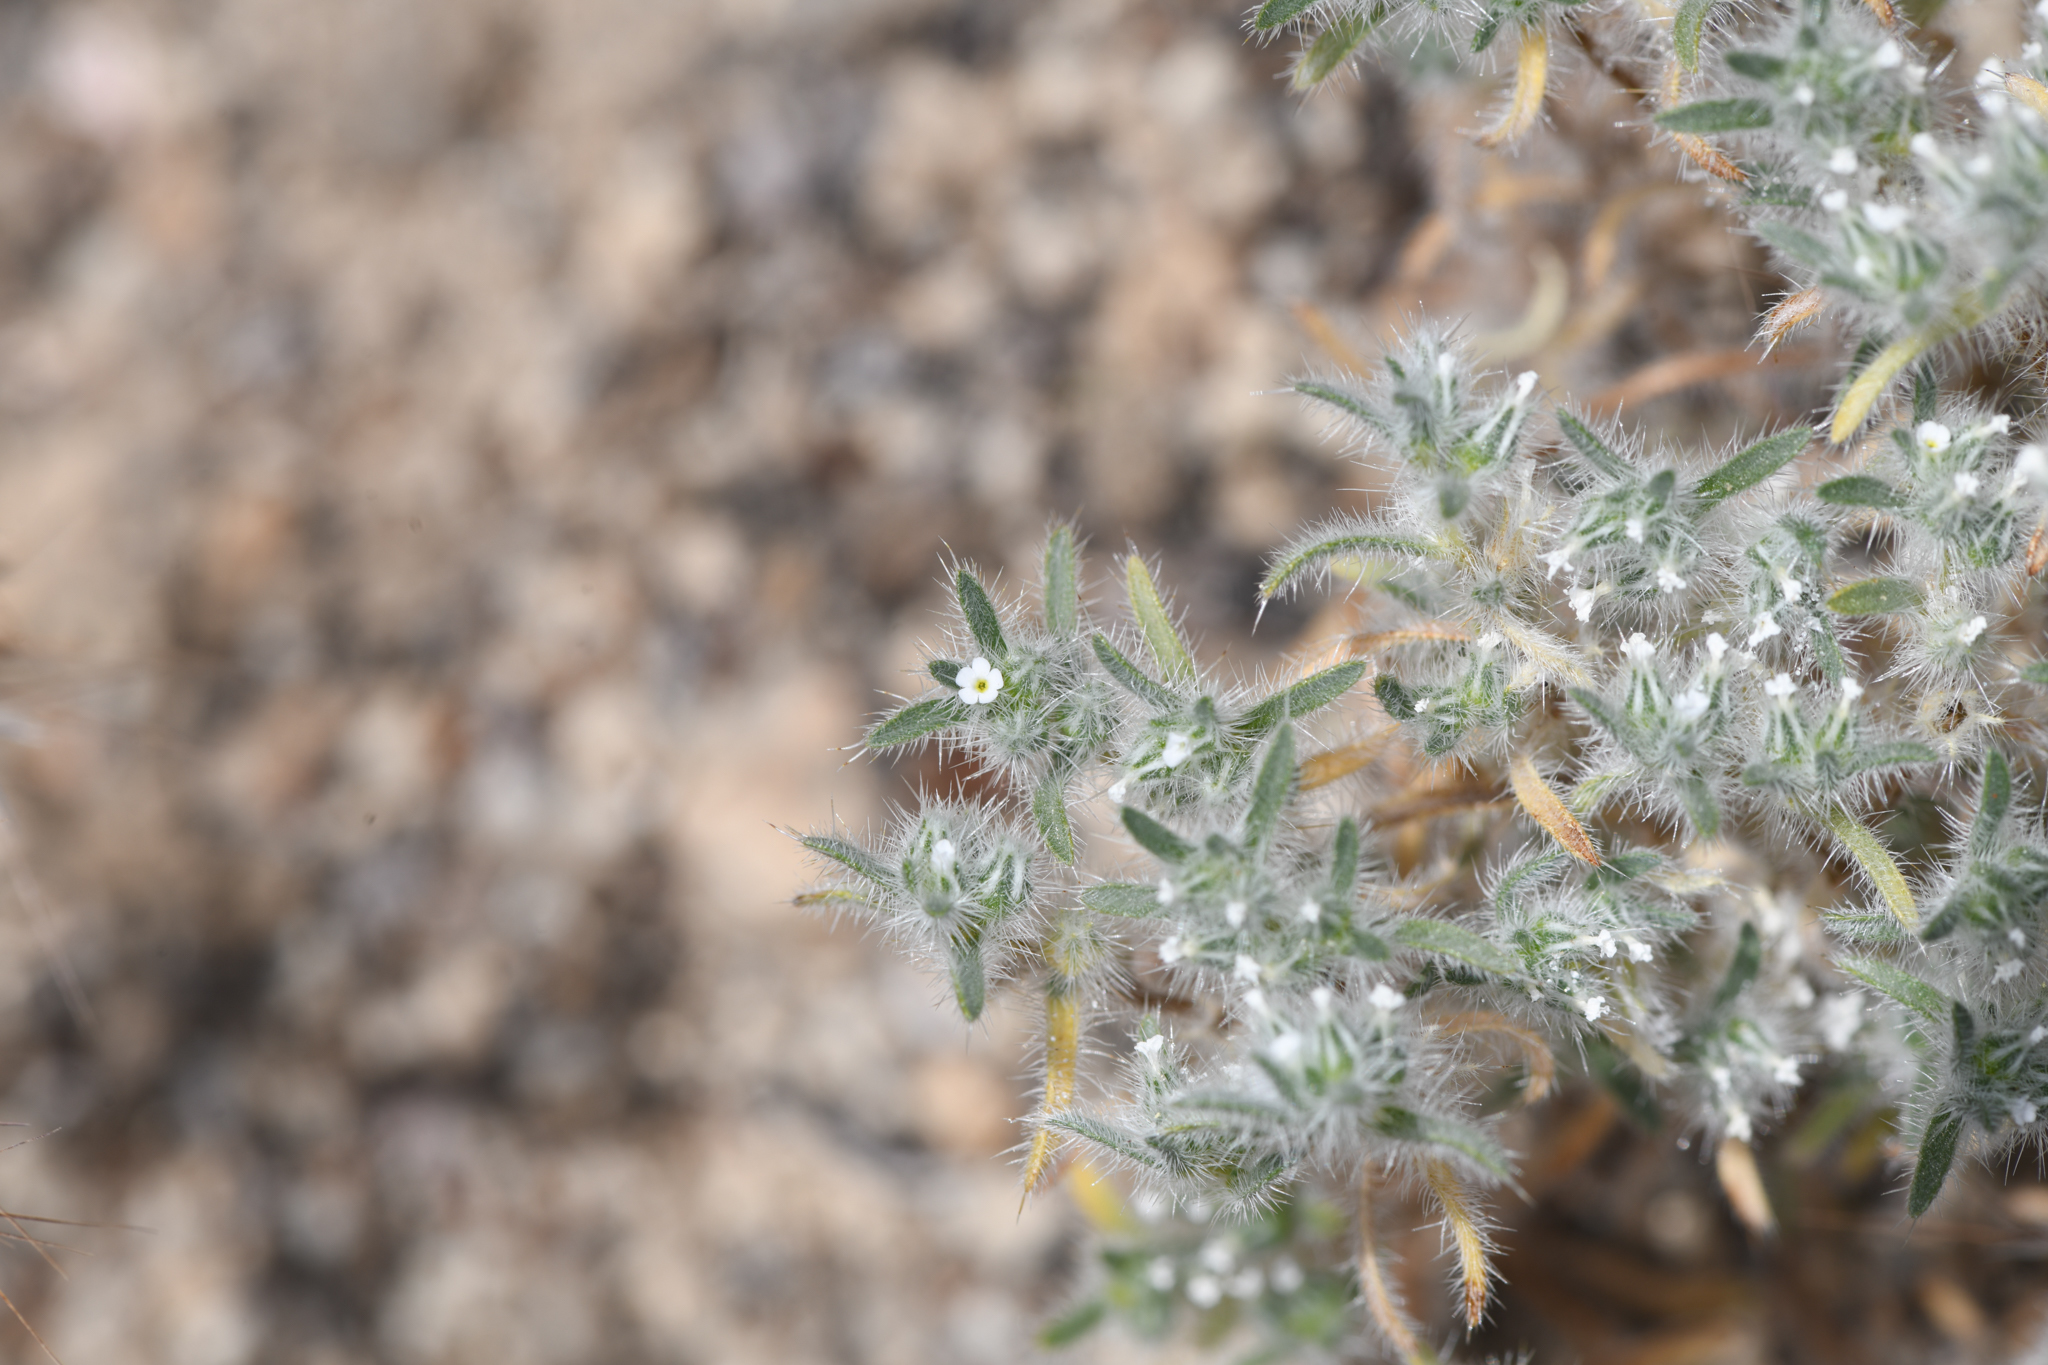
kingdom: Plantae
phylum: Tracheophyta
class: Magnoliopsida
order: Boraginales
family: Boraginaceae
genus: Greeneocharis
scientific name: Greeneocharis circumscissa
